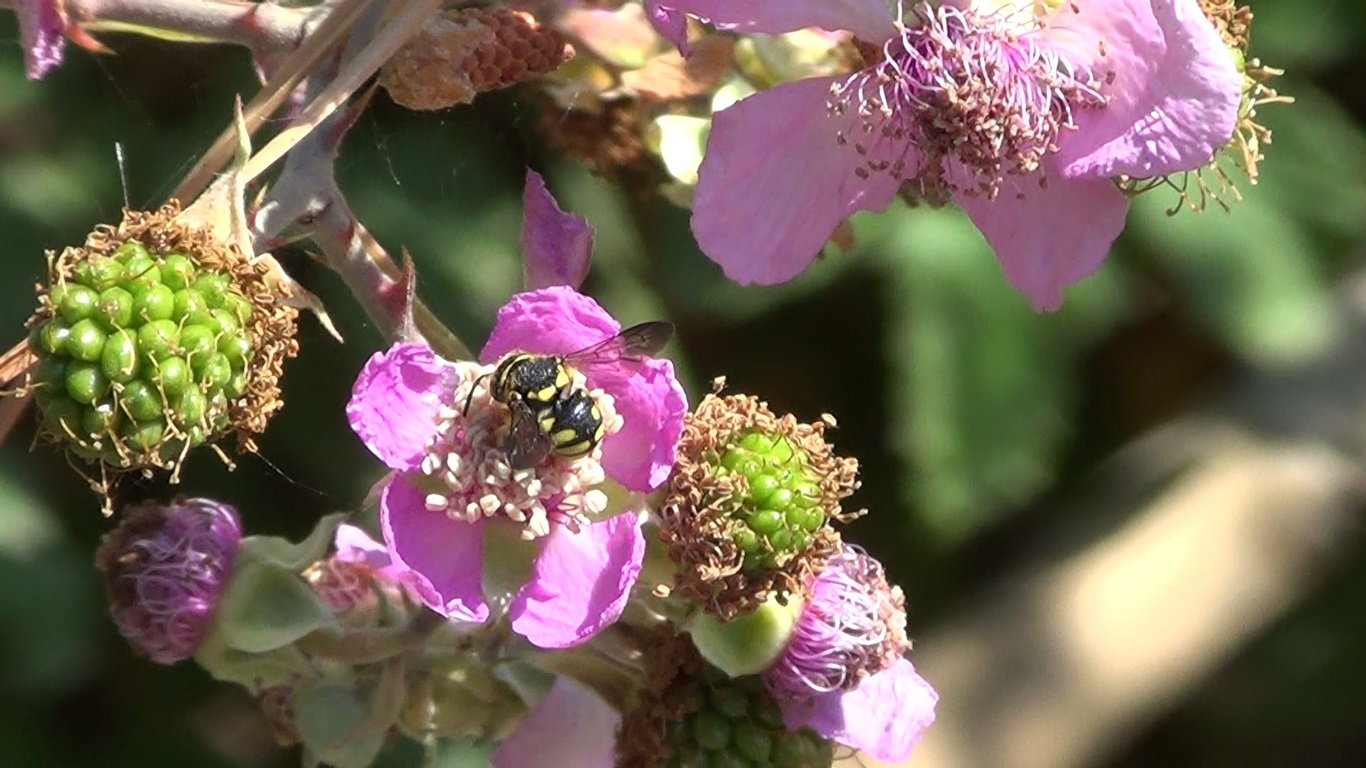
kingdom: Animalia
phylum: Arthropoda
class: Insecta
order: Hymenoptera
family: Megachilidae
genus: Anthidiellum
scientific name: Anthidiellum strigatum
